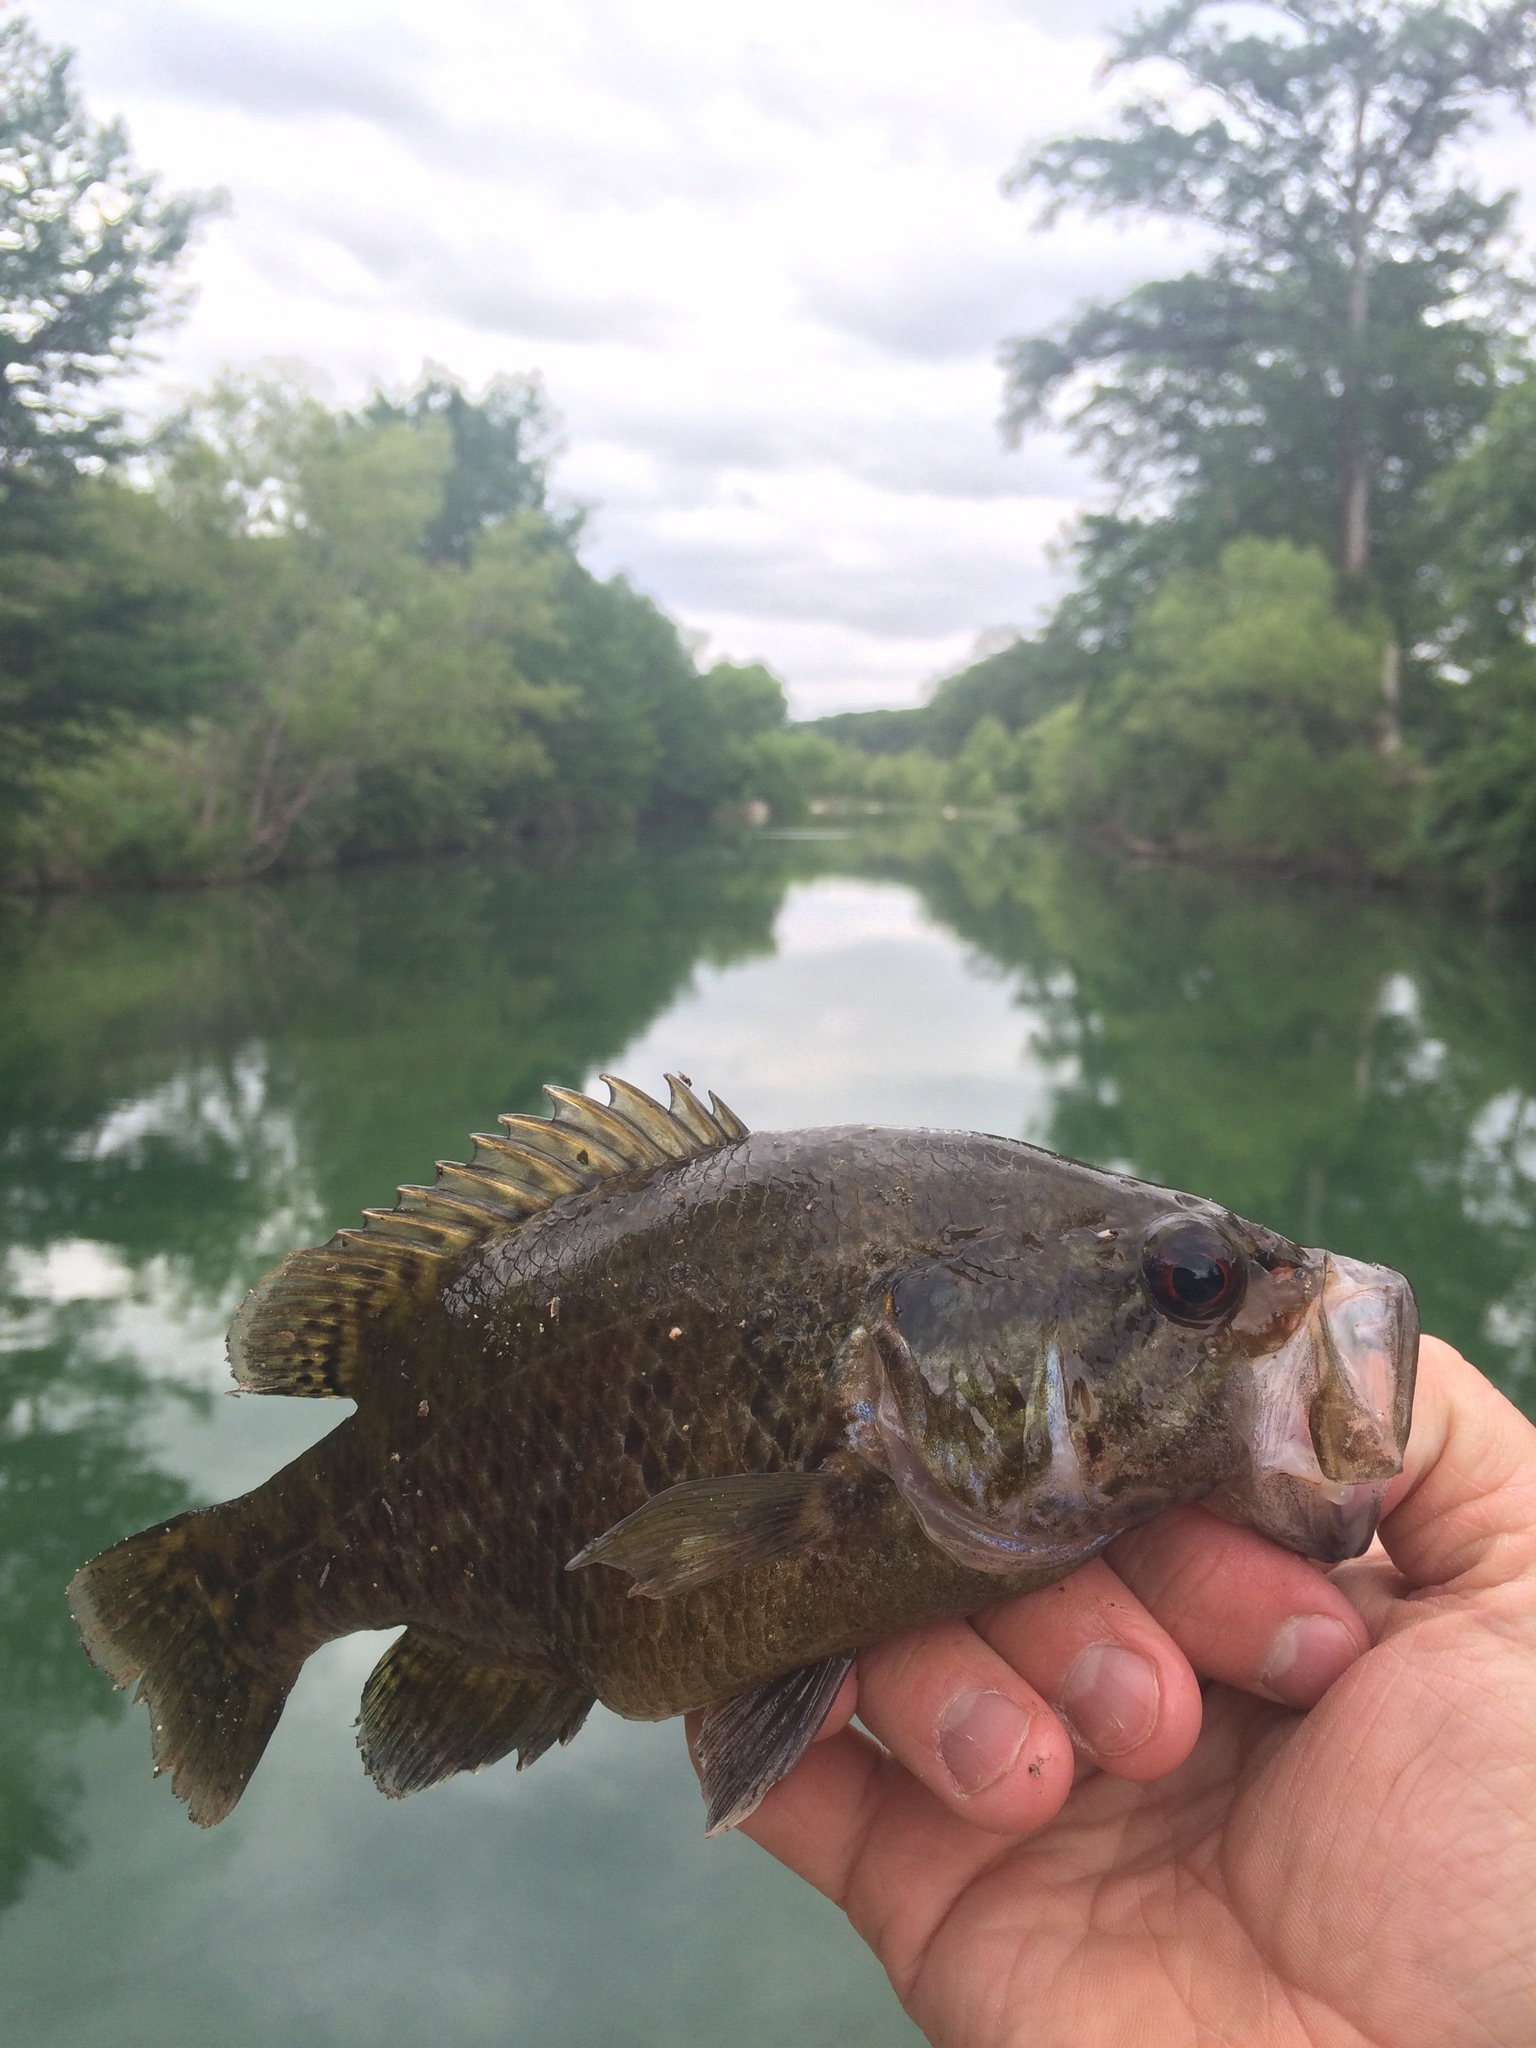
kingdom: Animalia
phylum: Chordata
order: Perciformes
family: Centrarchidae
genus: Lepomis
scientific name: Lepomis gulosus
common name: Warmouth
